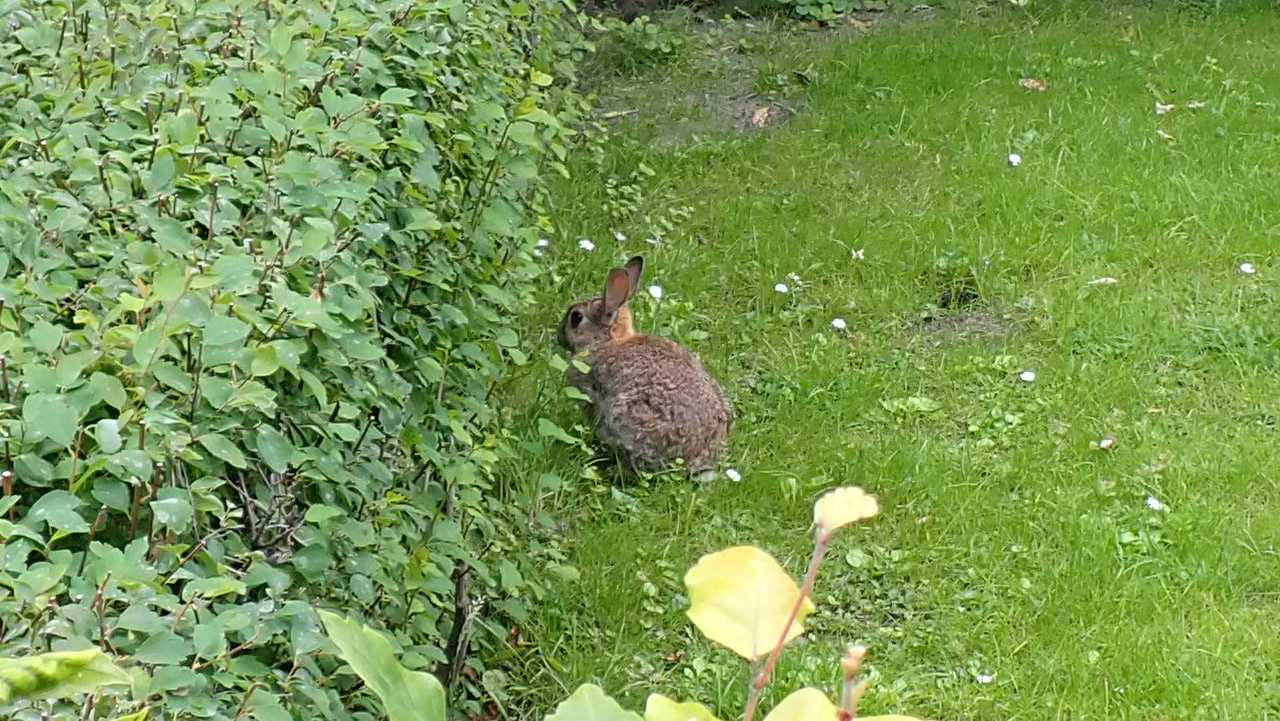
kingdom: Animalia
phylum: Chordata
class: Mammalia
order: Lagomorpha
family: Leporidae
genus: Oryctolagus
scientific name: Oryctolagus cuniculus
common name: European rabbit
